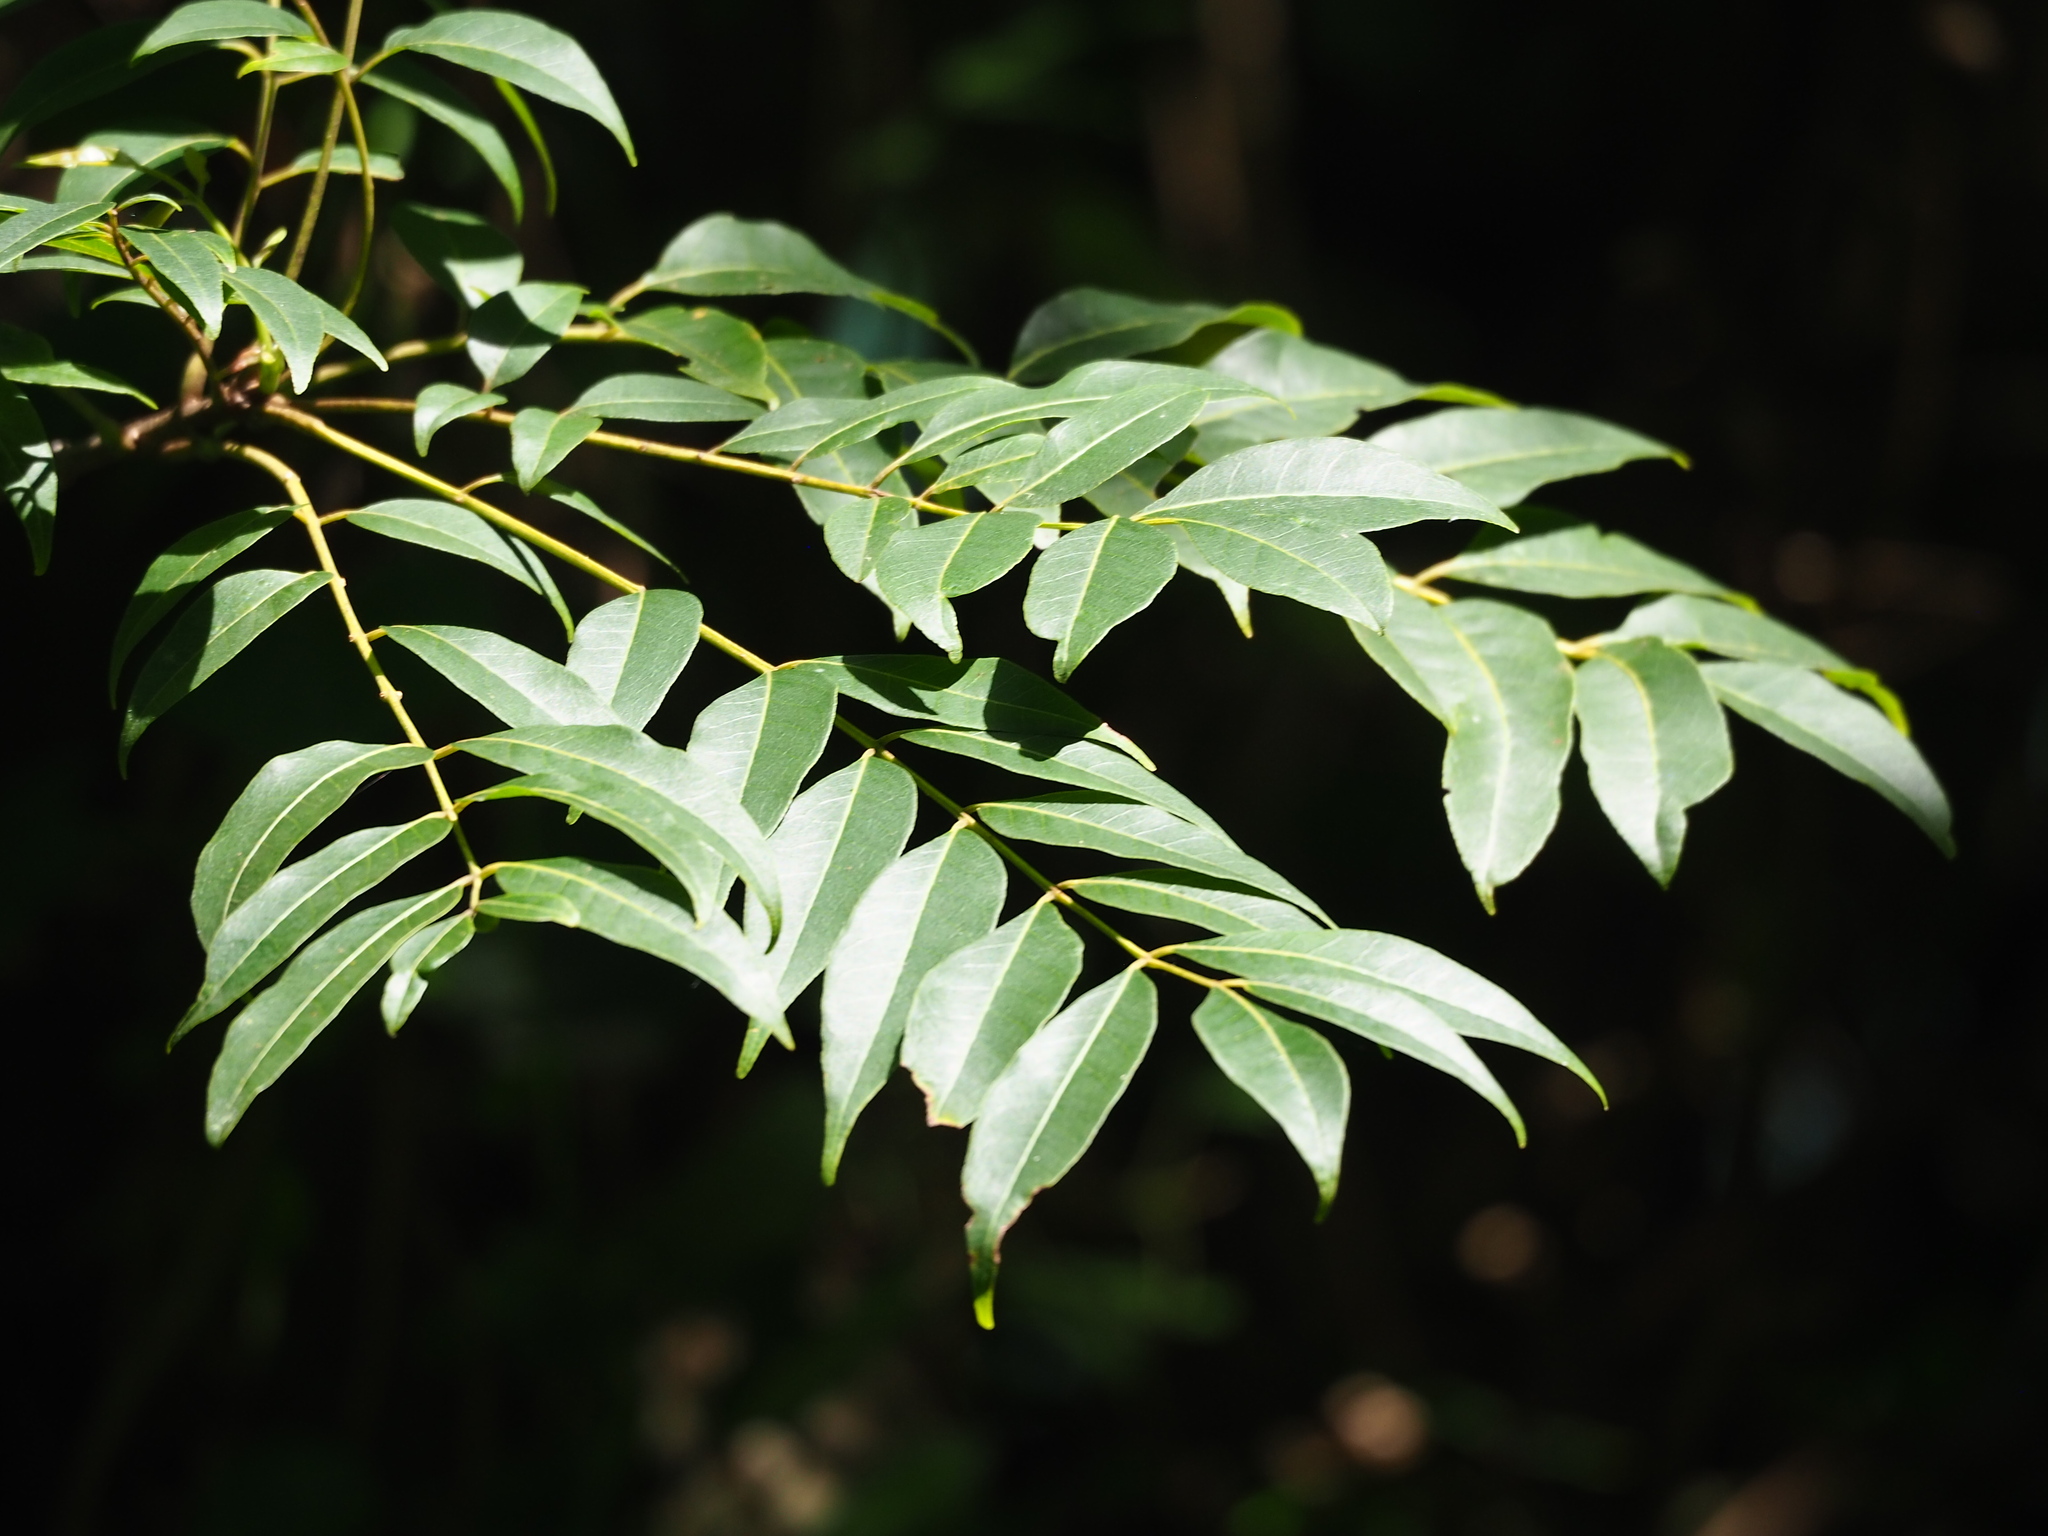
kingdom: Plantae
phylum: Tracheophyta
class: Magnoliopsida
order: Fabales
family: Fabaceae
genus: Wisteriopsis
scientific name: Wisteriopsis reticulata
